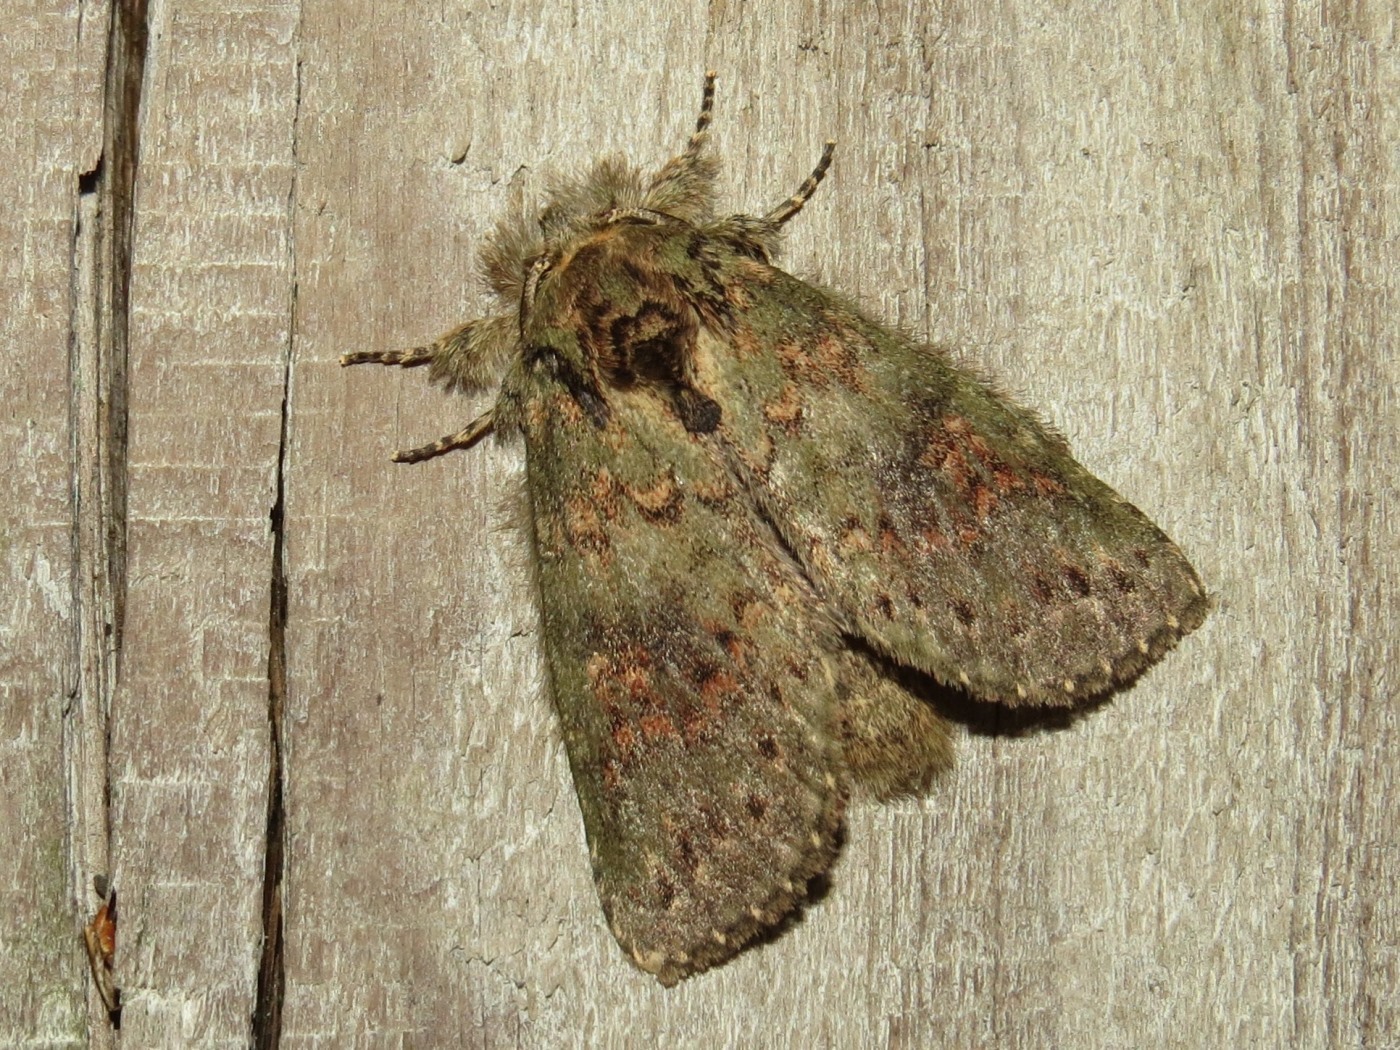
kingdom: Animalia
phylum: Arthropoda
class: Insecta
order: Lepidoptera
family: Notodontidae
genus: Disphragis
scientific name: Disphragis Cecrita biundata
